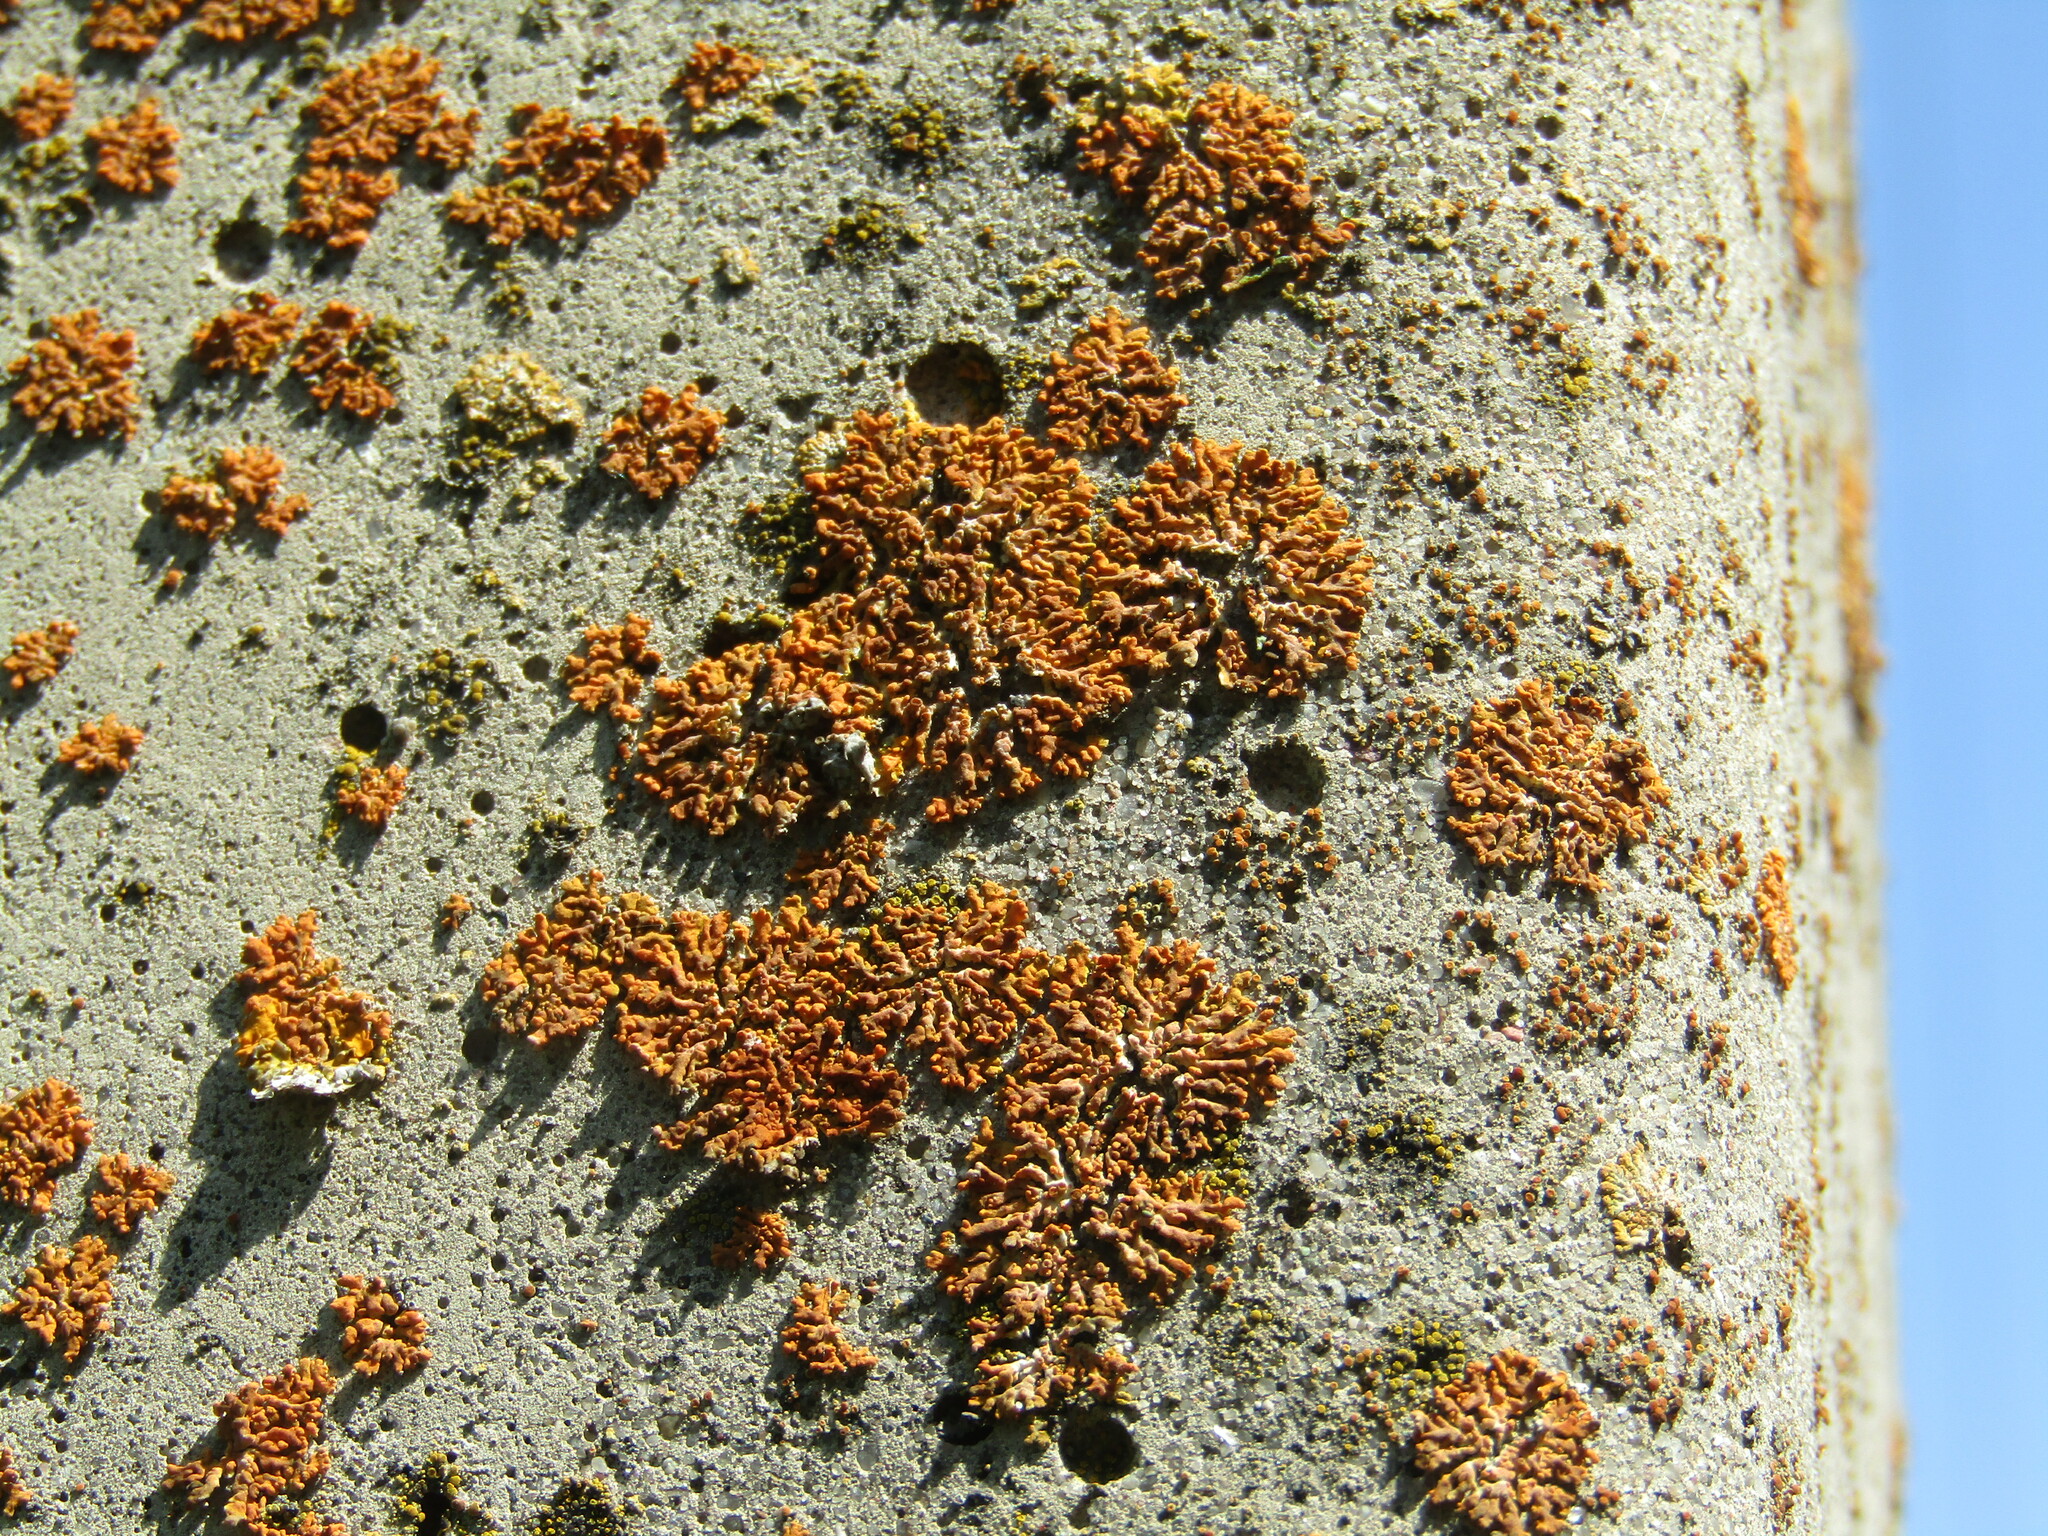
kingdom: Fungi
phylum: Ascomycota
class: Lecanoromycetes
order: Teloschistales
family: Teloschistaceae
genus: Xanthoria
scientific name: Xanthoria elegans
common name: Elegant sunburst lichen
